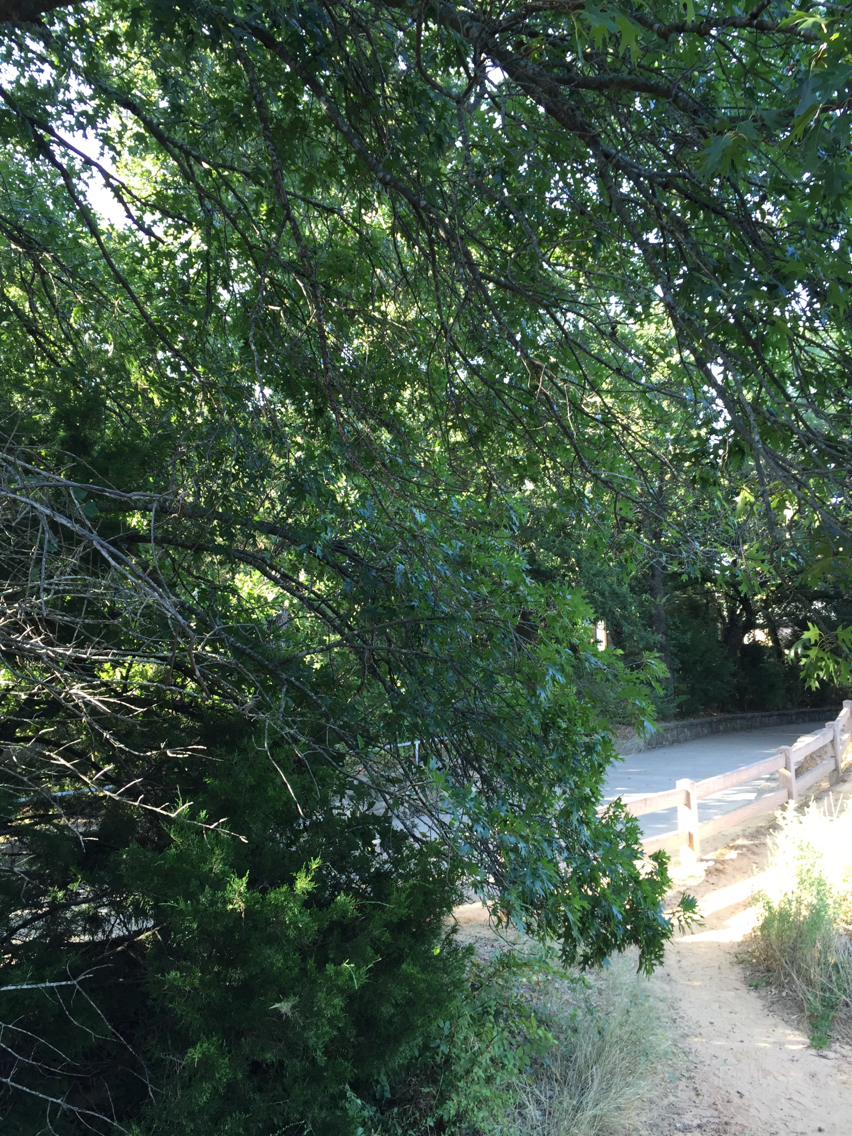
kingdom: Plantae
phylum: Tracheophyta
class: Magnoliopsida
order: Fagales
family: Fagaceae
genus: Quercus
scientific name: Quercus shumardii
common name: Shumard oak
